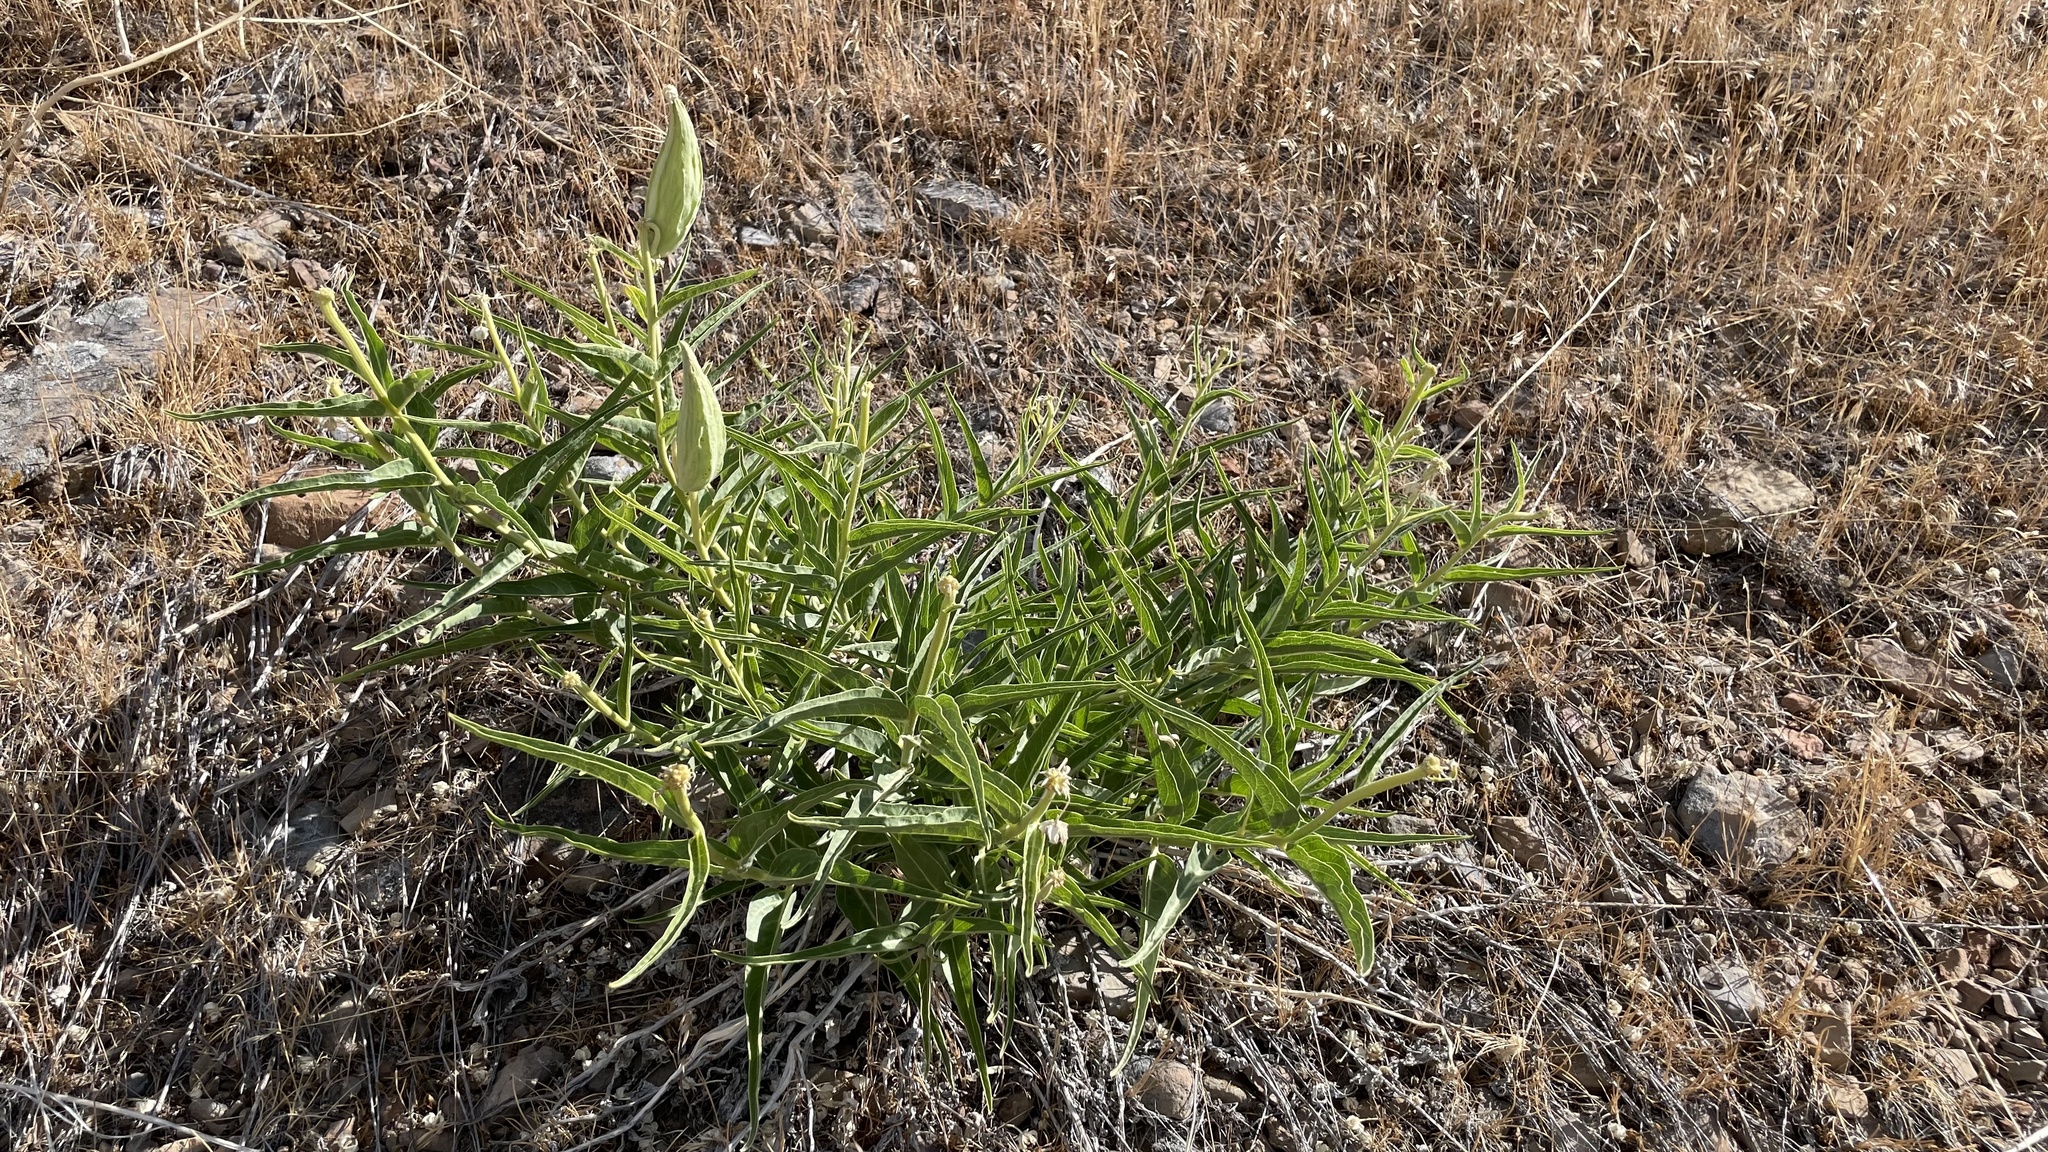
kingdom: Plantae
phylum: Tracheophyta
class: Magnoliopsida
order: Gentianales
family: Apocynaceae
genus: Asclepias
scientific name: Asclepias asperula
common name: Antelope horns
